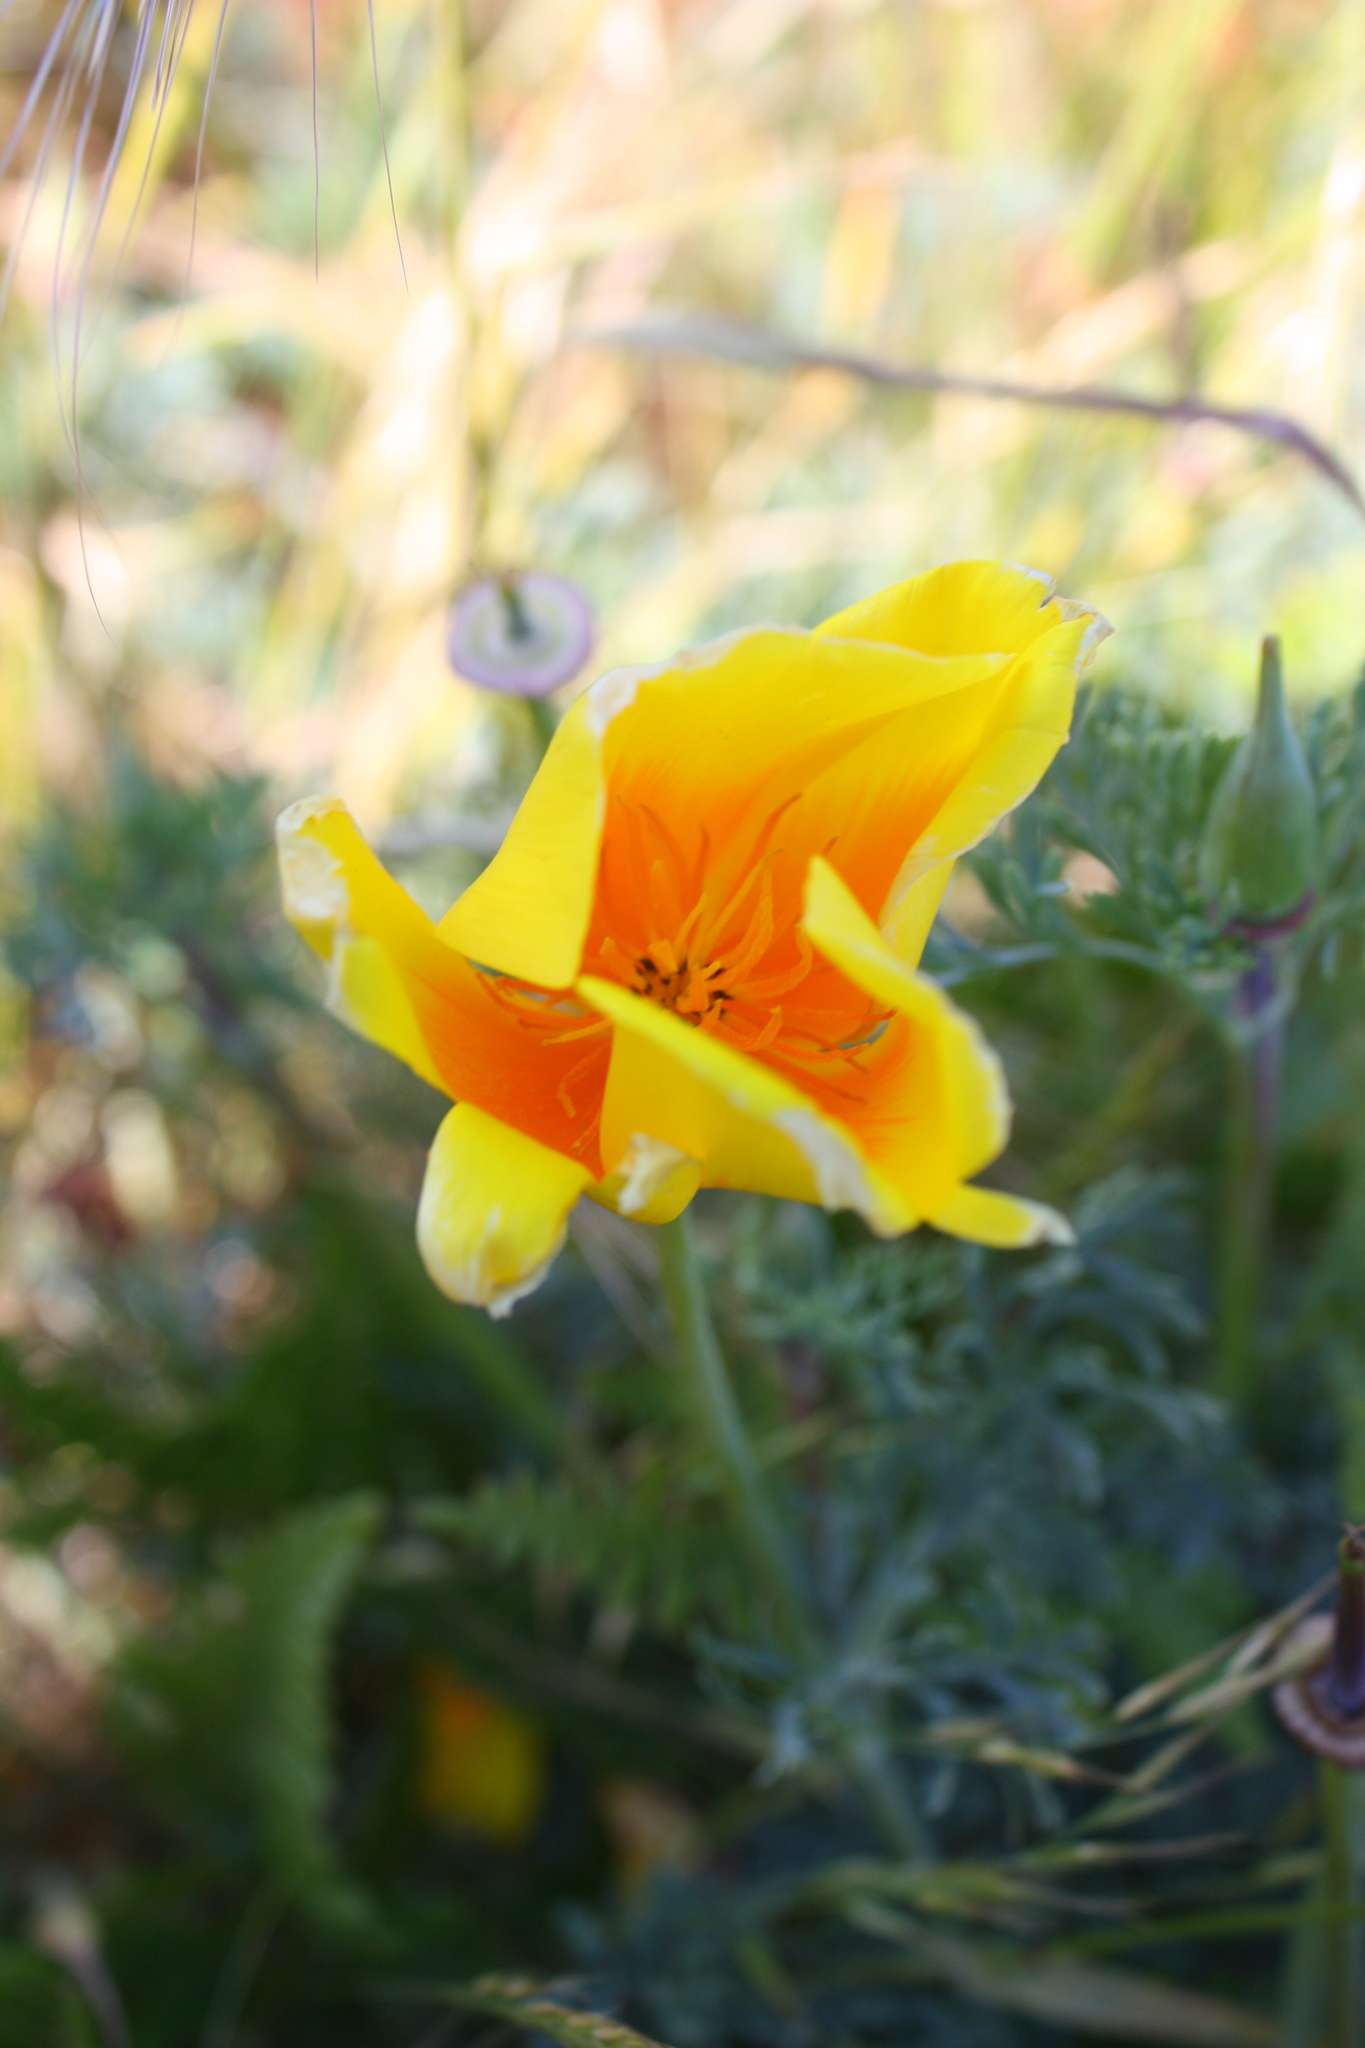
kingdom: Plantae
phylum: Tracheophyta
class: Magnoliopsida
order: Ranunculales
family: Papaveraceae
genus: Eschscholzia
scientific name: Eschscholzia californica
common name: California poppy
